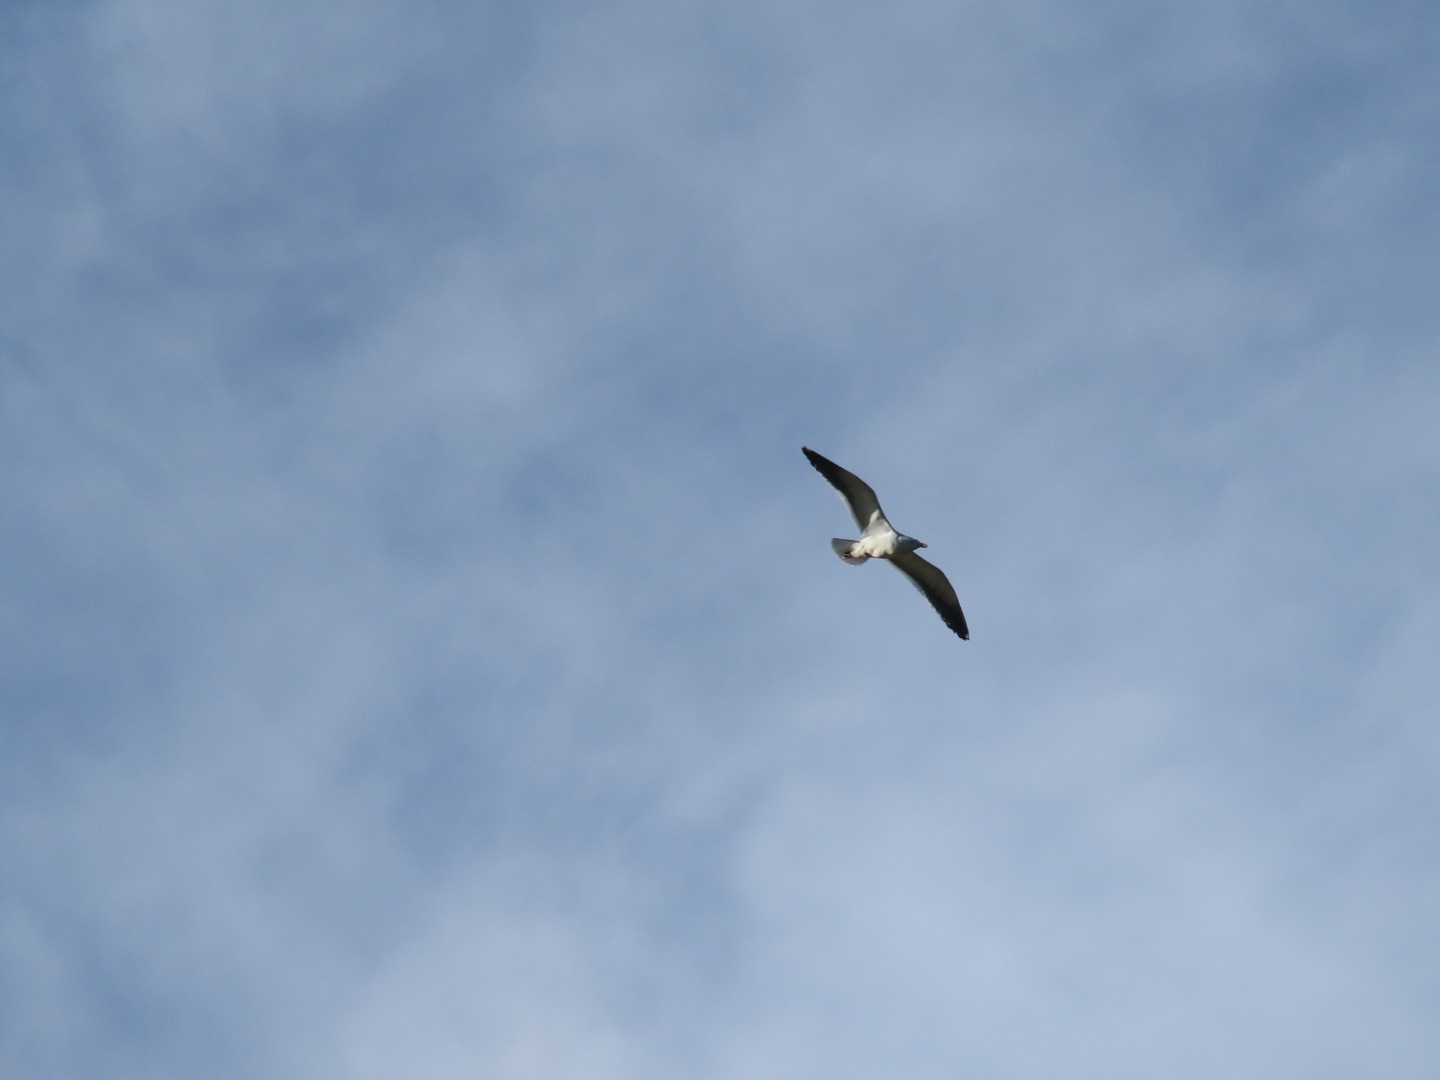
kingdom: Animalia
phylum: Chordata
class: Aves
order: Charadriiformes
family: Laridae
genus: Larus
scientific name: Larus dominicanus
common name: Kelp gull
